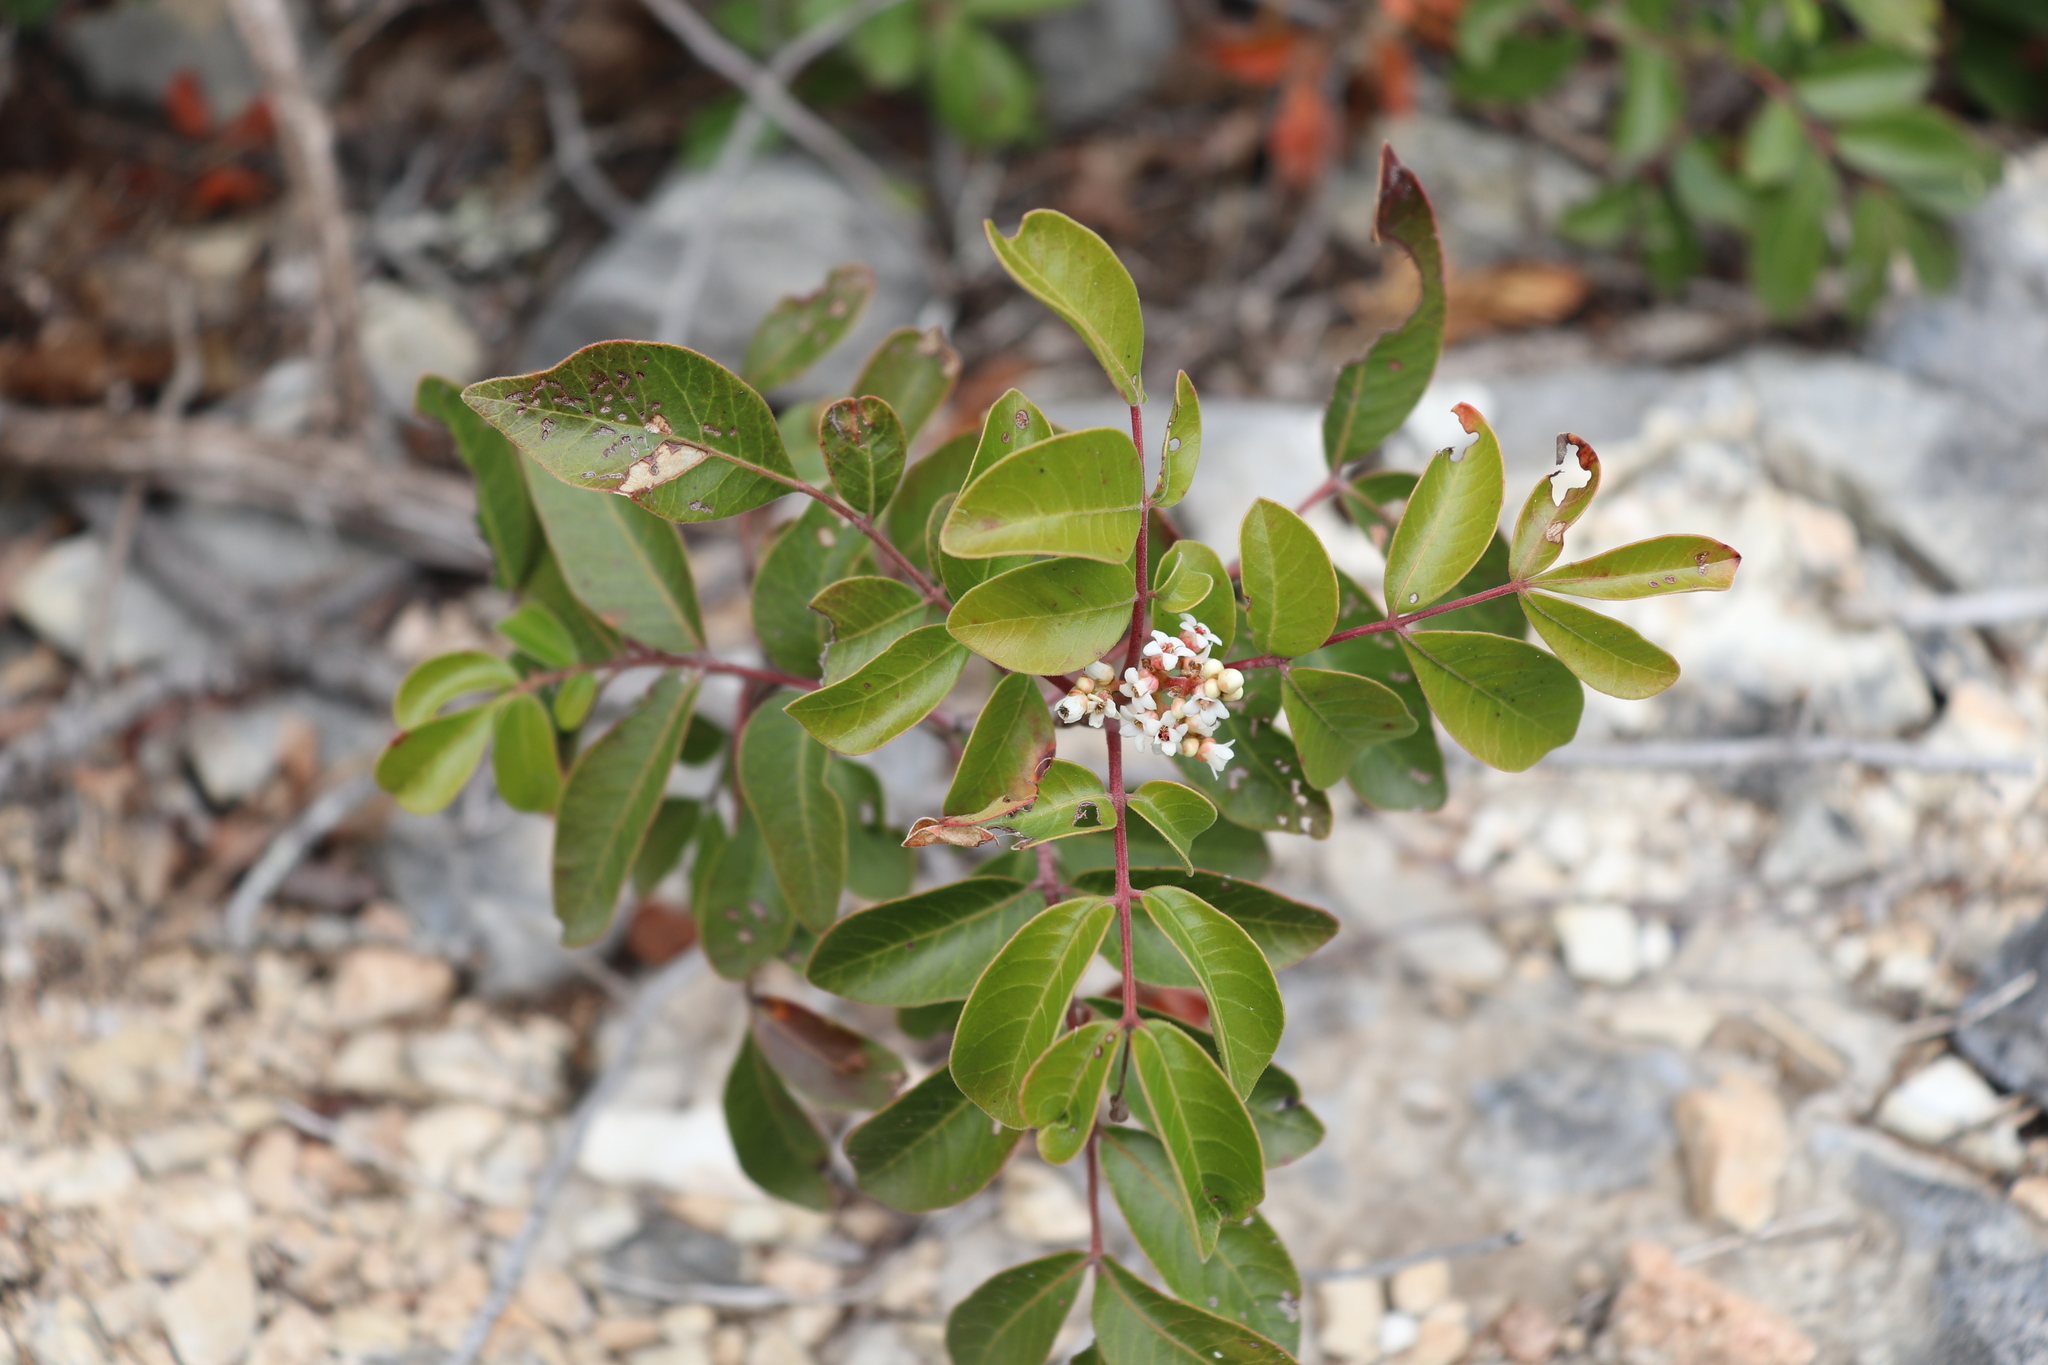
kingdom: Plantae
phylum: Tracheophyta
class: Magnoliopsida
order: Sapindales
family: Anacardiaceae
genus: Rhus
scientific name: Rhus virens
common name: Evergreen sumac
